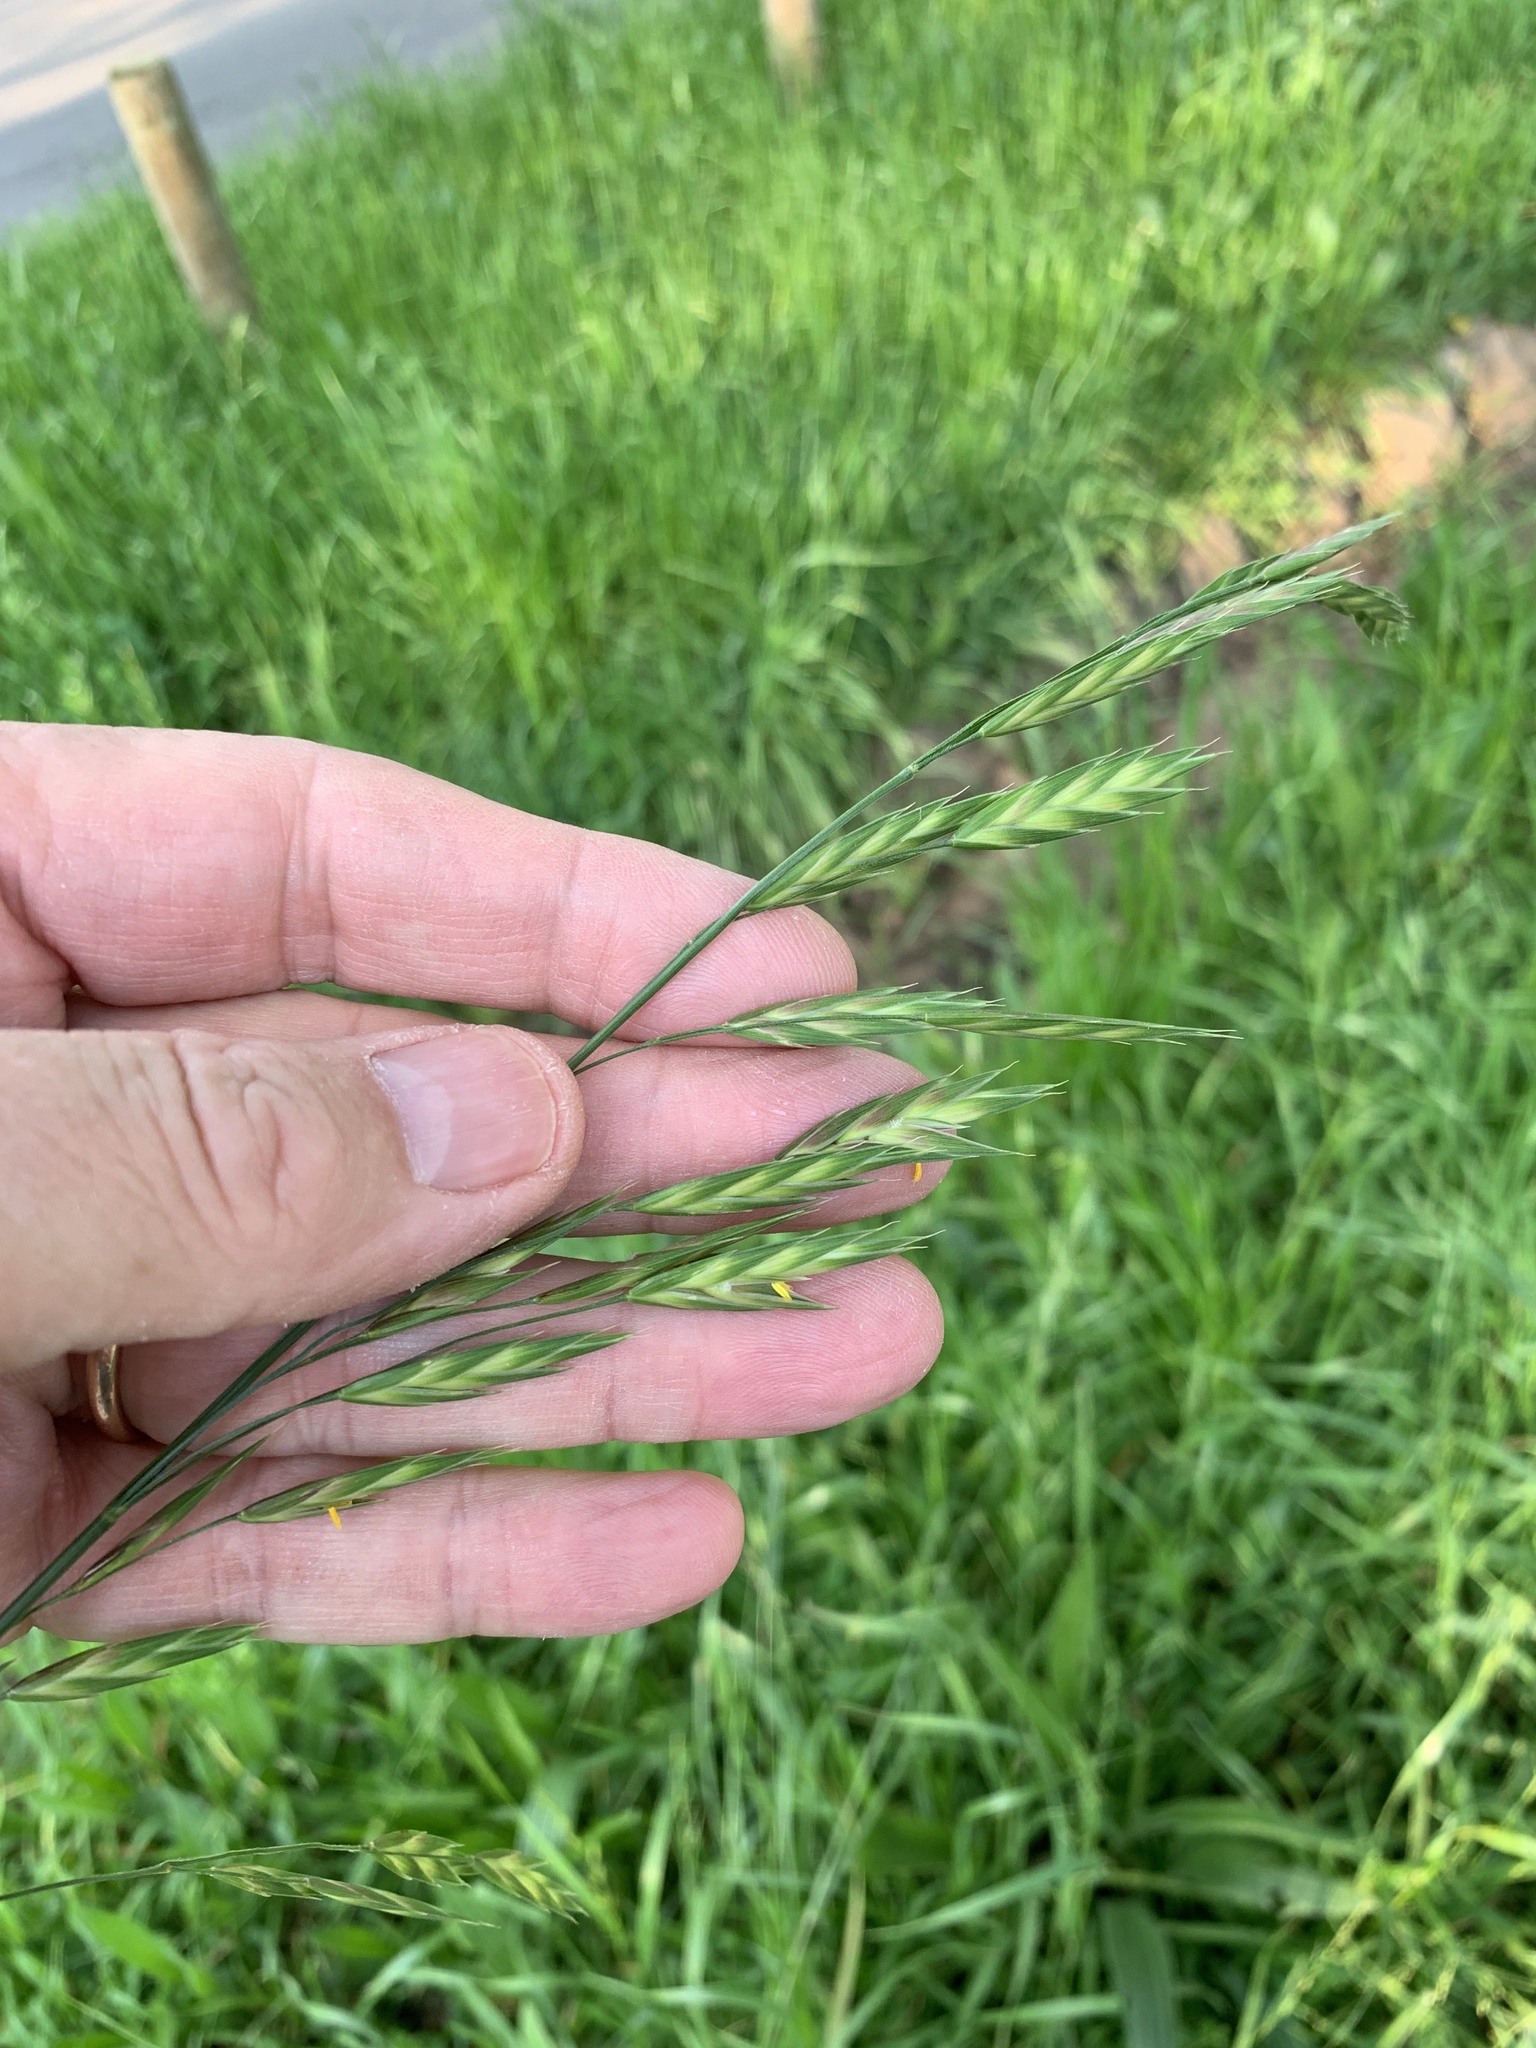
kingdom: Plantae
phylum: Tracheophyta
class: Liliopsida
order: Poales
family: Poaceae
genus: Bromus
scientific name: Bromus catharticus
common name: Rescuegrass
